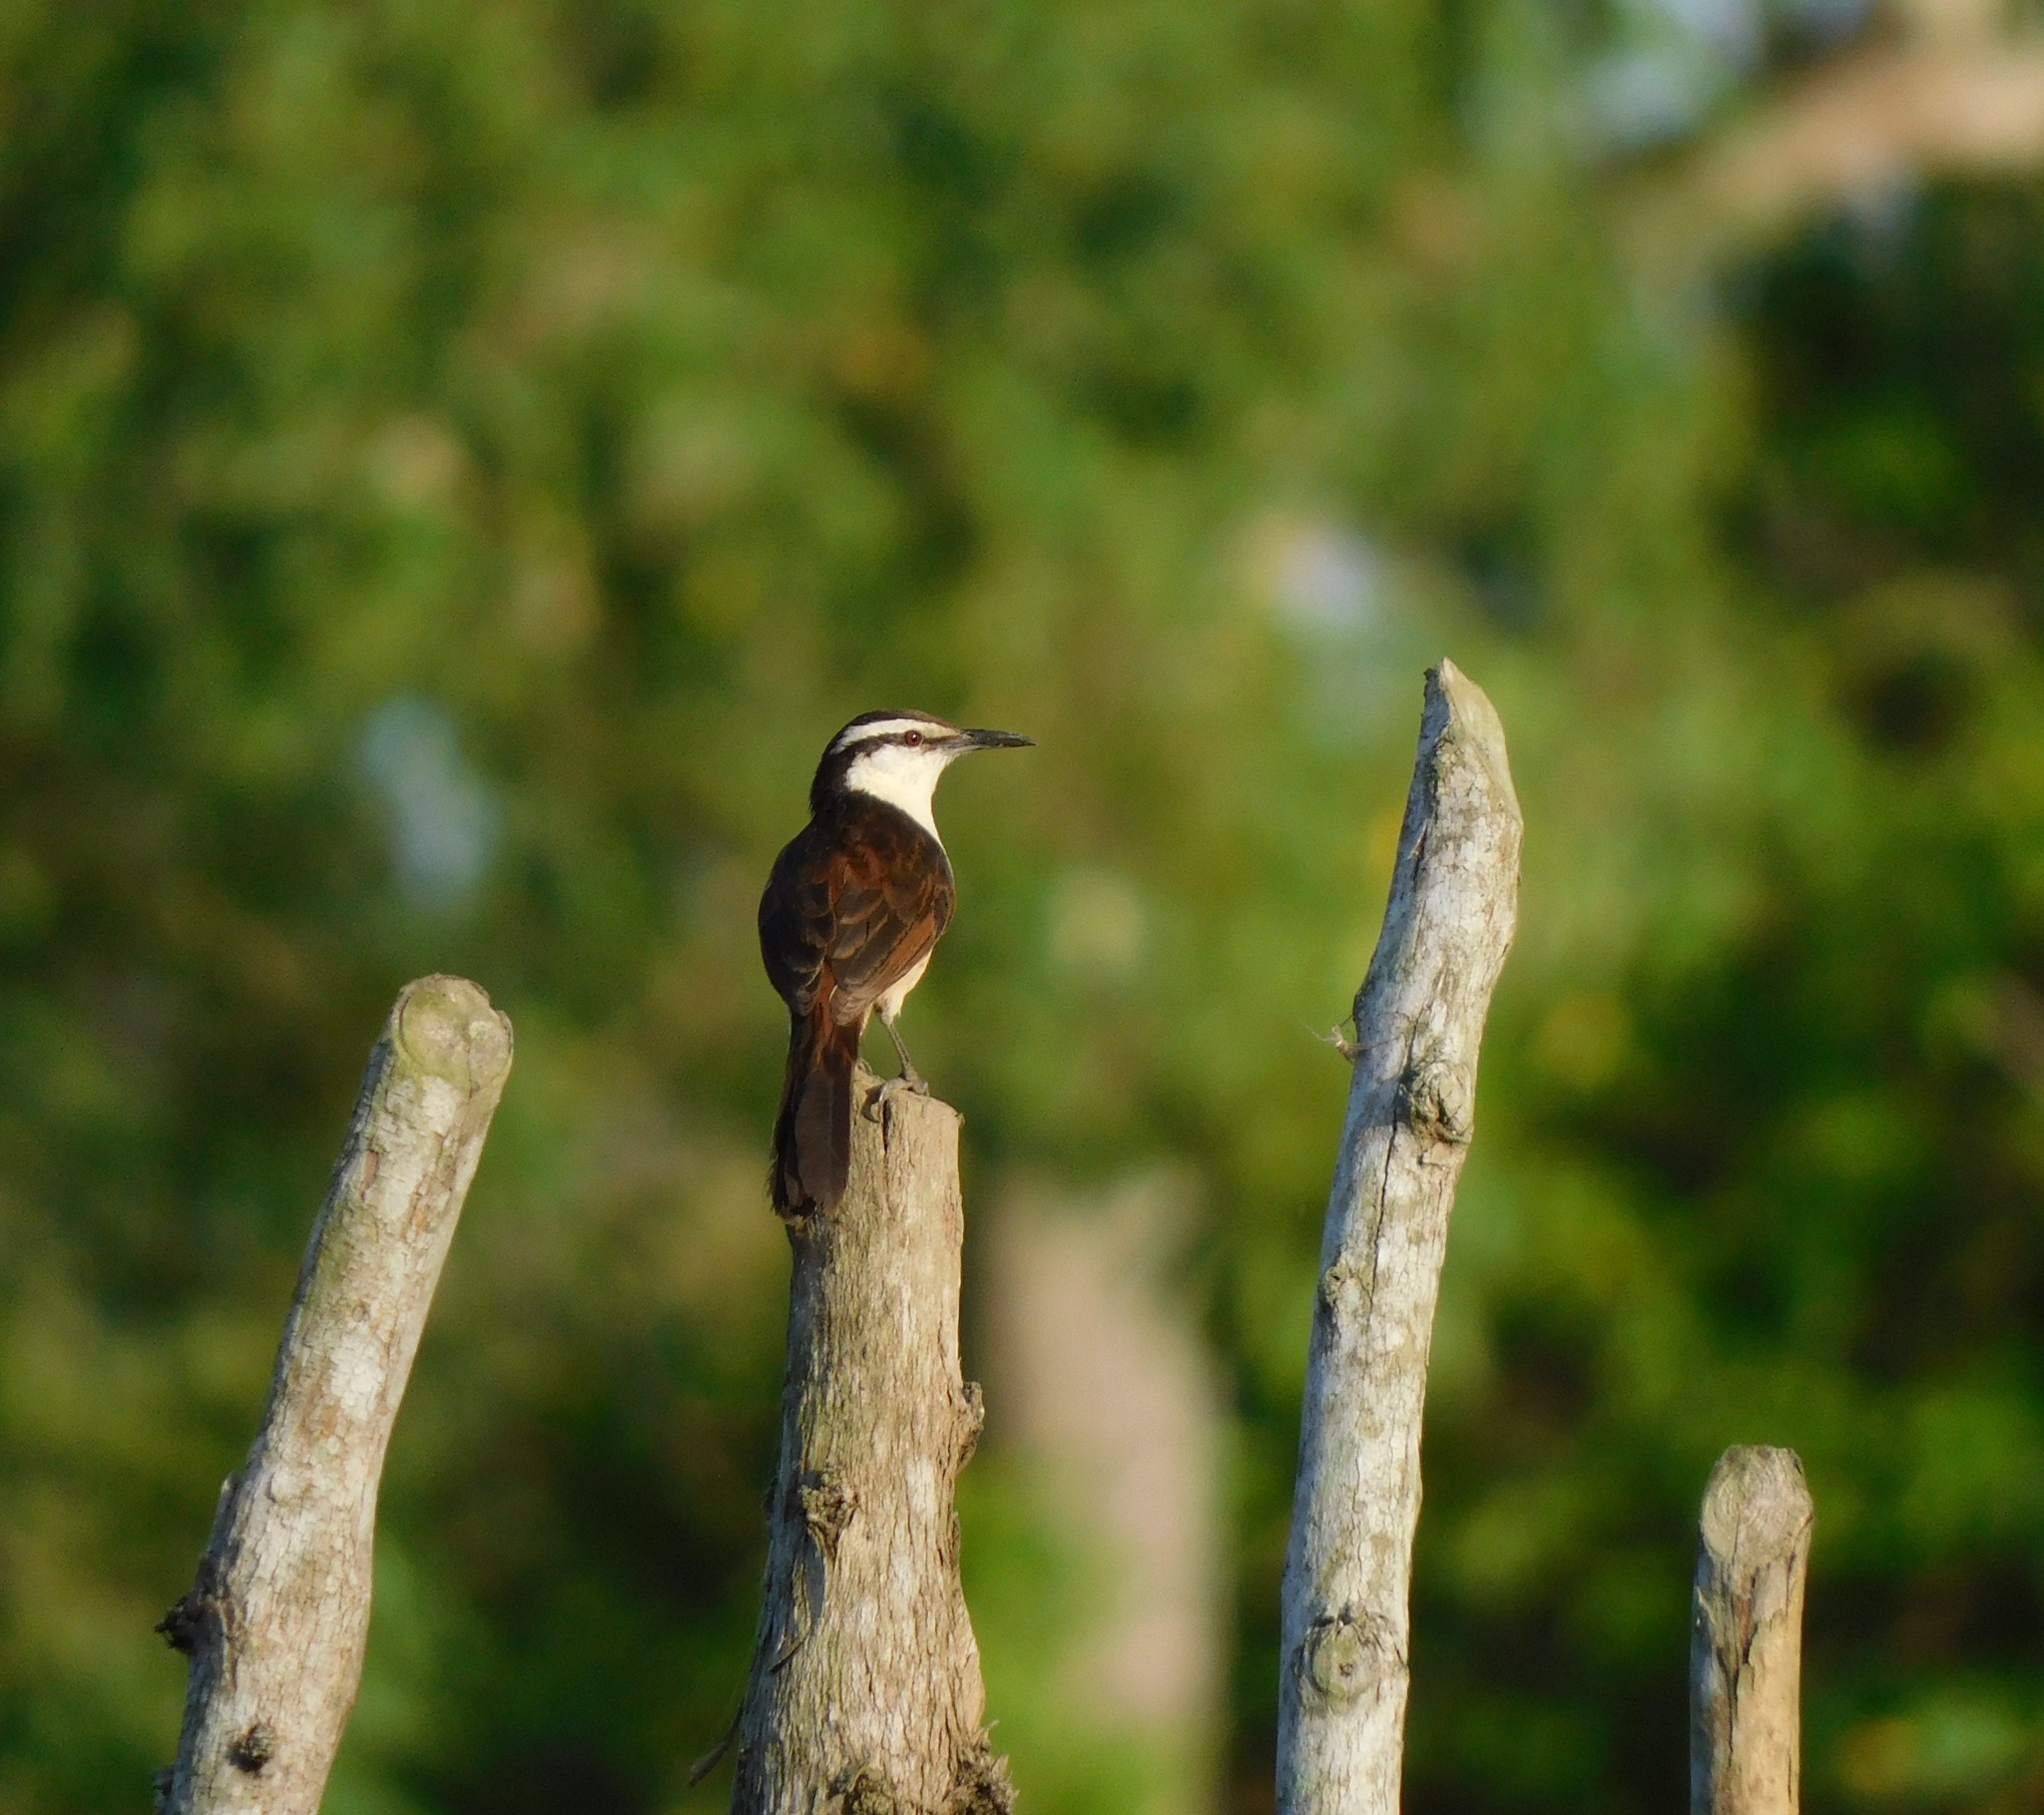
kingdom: Animalia
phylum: Chordata
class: Aves
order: Passeriformes
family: Troglodytidae
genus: Campylorhynchus
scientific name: Campylorhynchus griseus
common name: Bicolored wren
